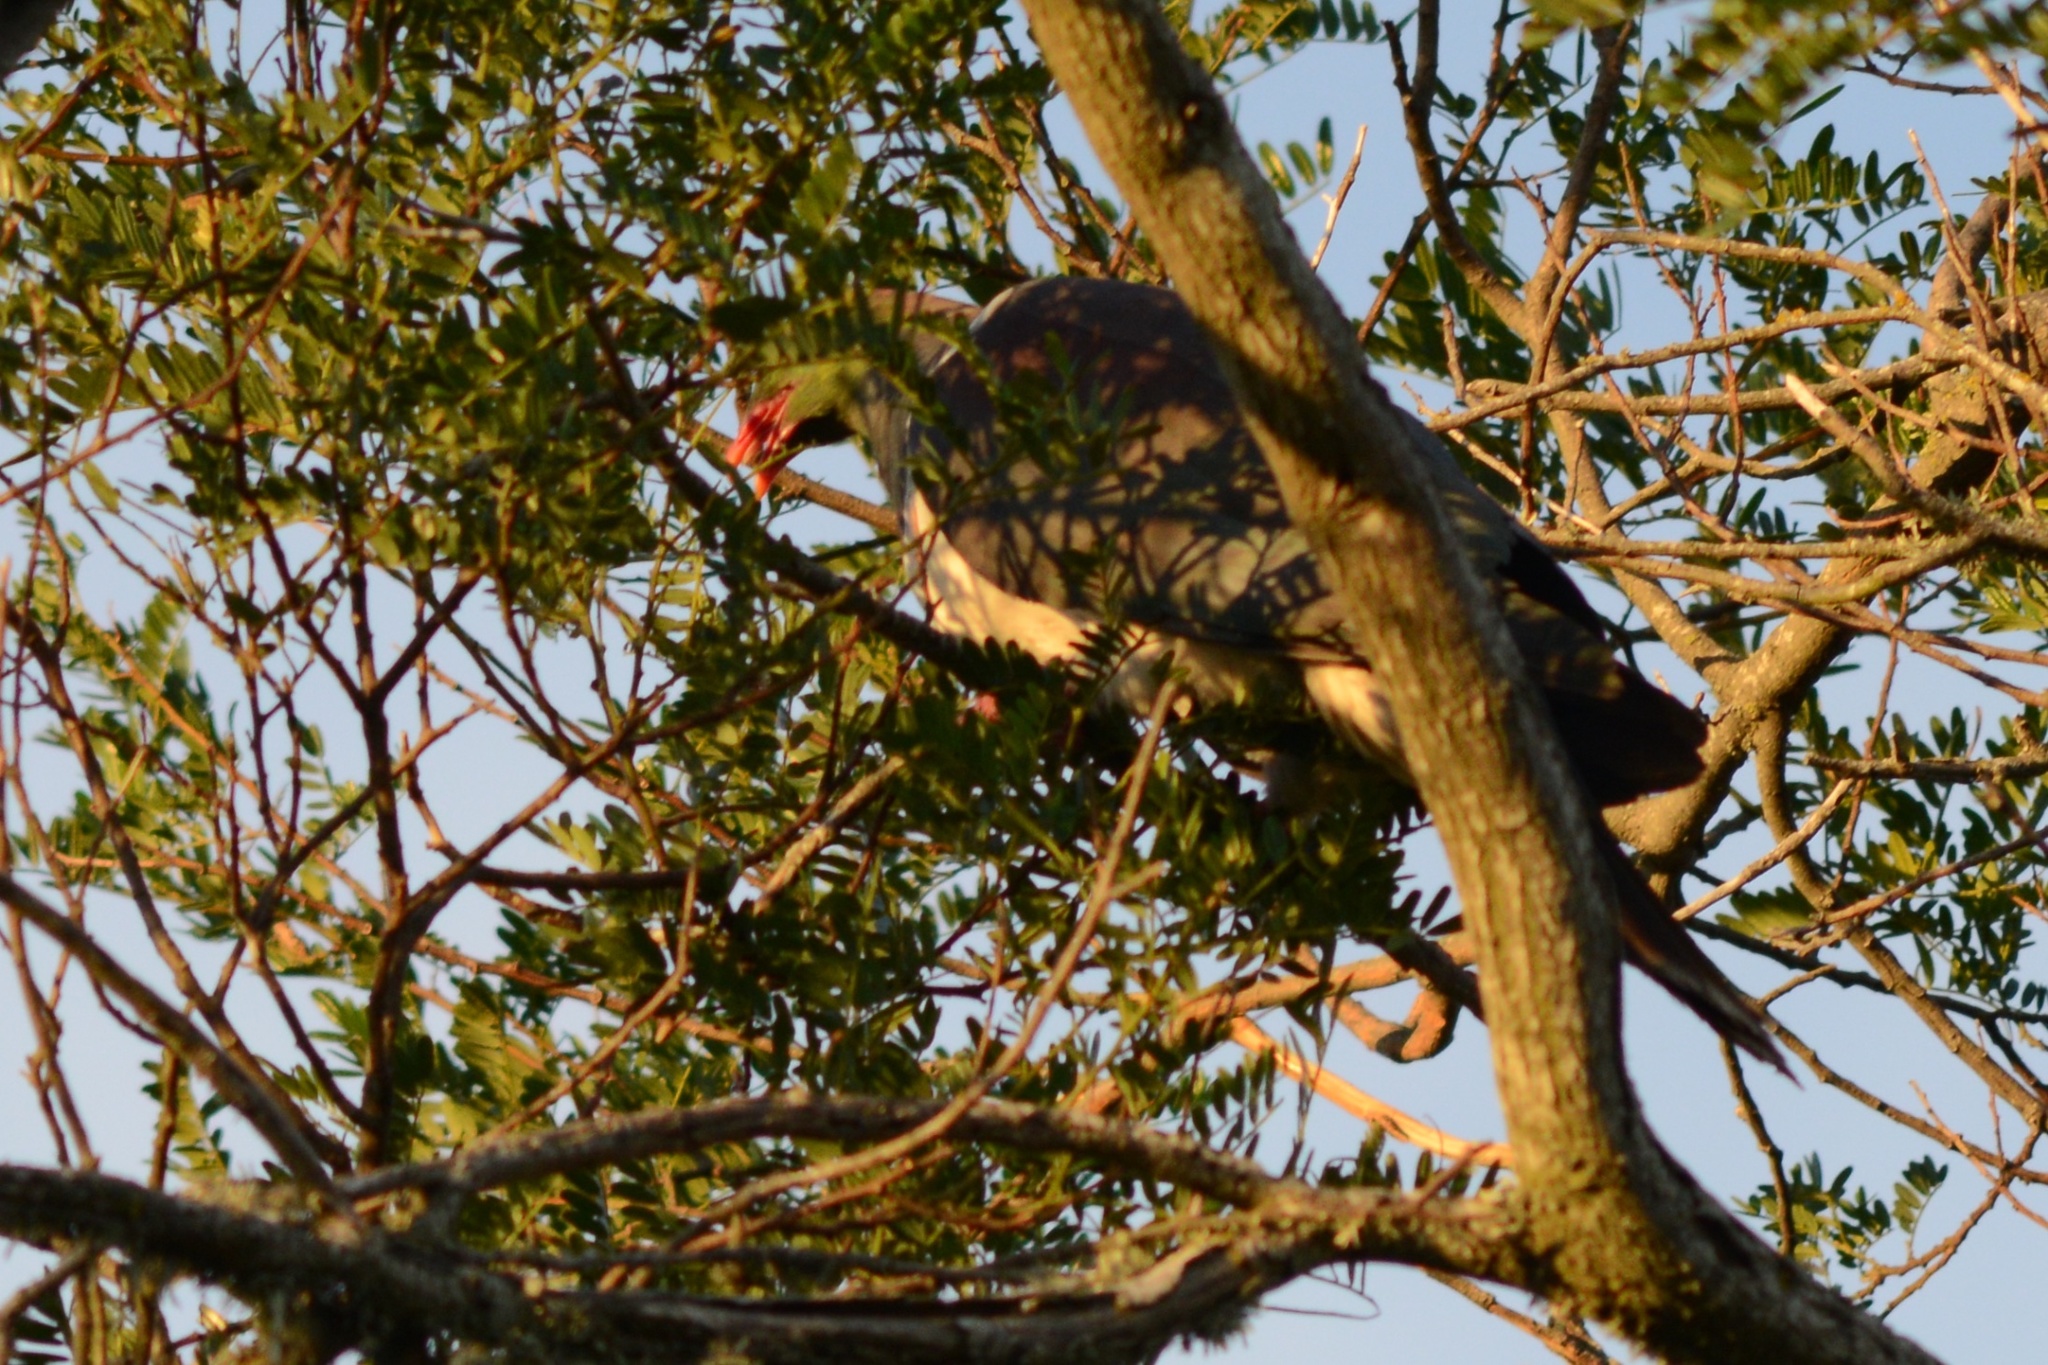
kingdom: Animalia
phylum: Chordata
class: Aves
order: Columbiformes
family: Columbidae
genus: Hemiphaga
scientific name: Hemiphaga novaeseelandiae
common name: New zealand pigeon
